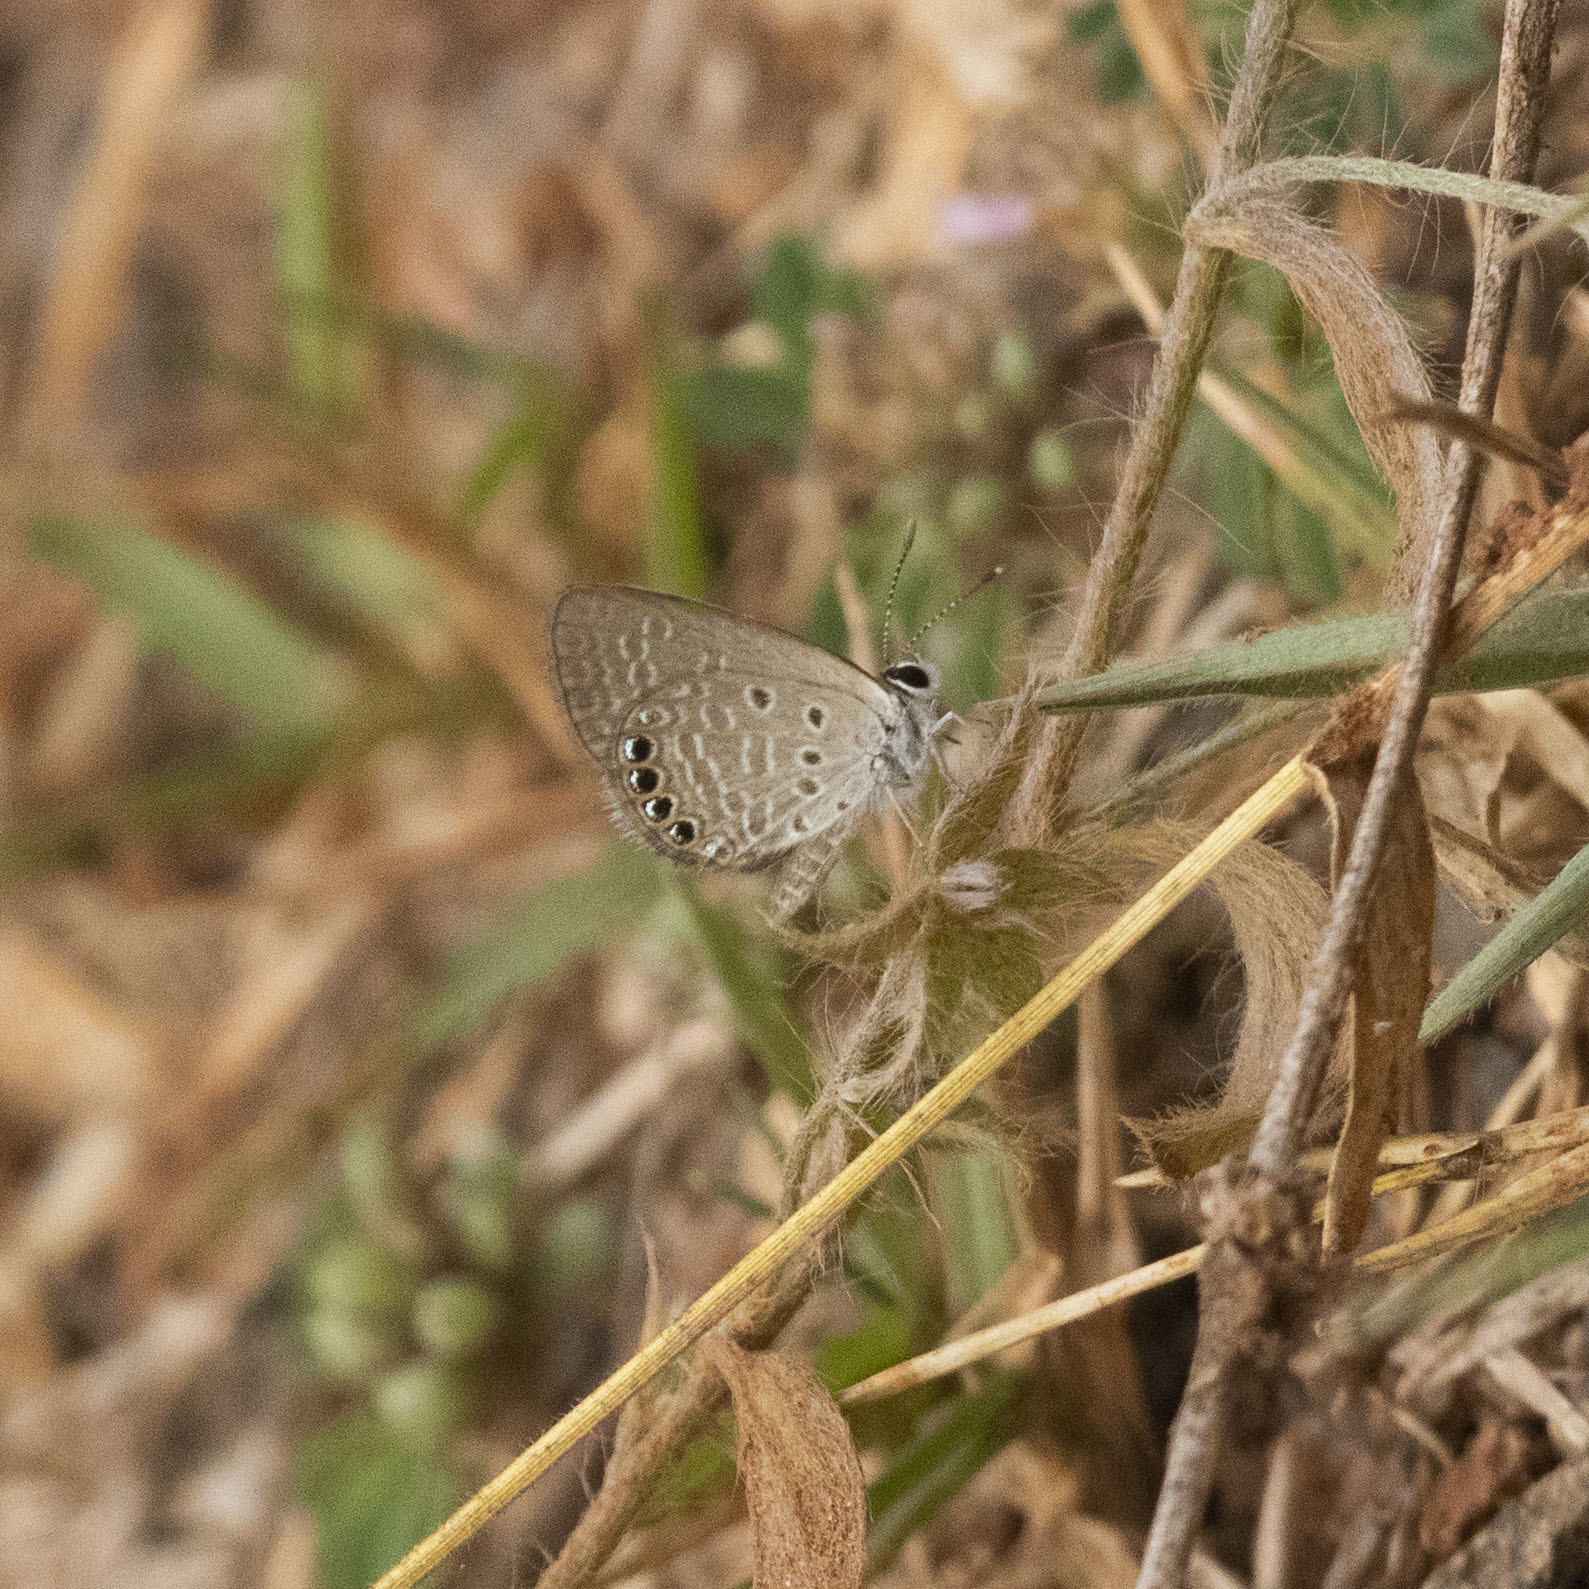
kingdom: Animalia
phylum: Arthropoda
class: Insecta
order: Lepidoptera
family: Lycaenidae
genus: Freyeria
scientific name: Freyeria putli
